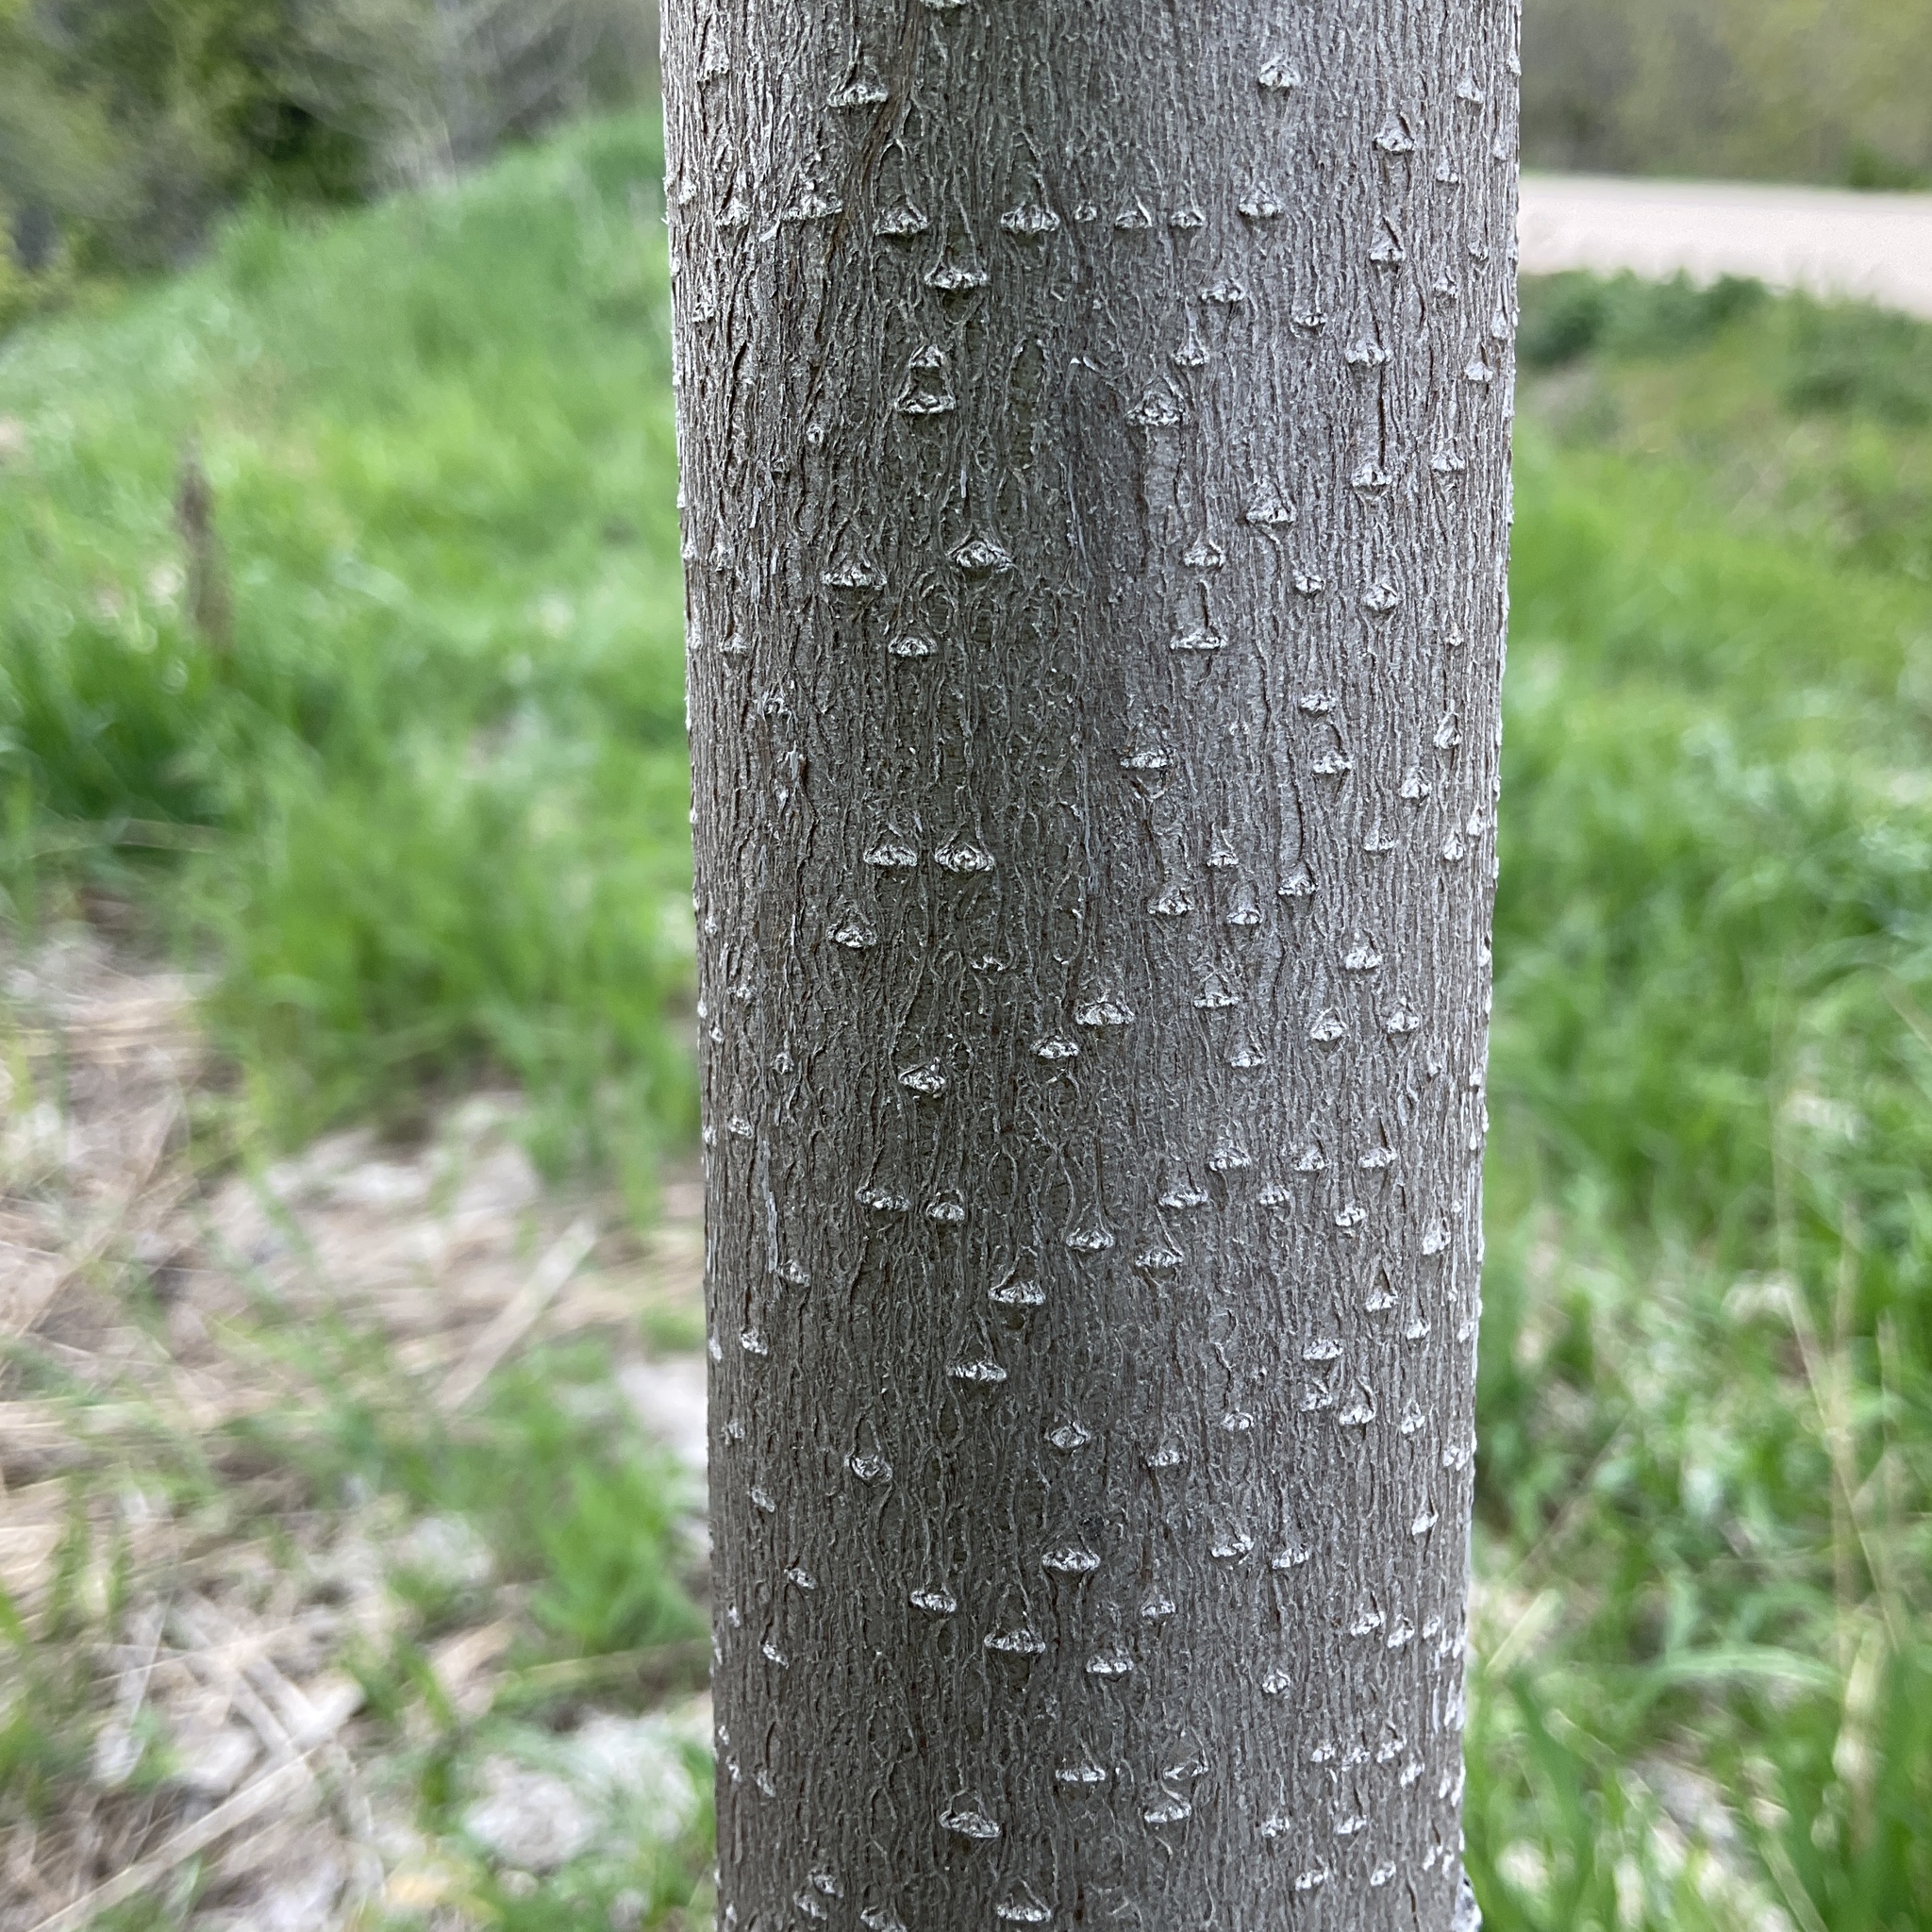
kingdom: Plantae
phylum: Tracheophyta
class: Magnoliopsida
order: Sapindales
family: Simaroubaceae
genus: Ailanthus
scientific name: Ailanthus altissima
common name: Tree-of-heaven
